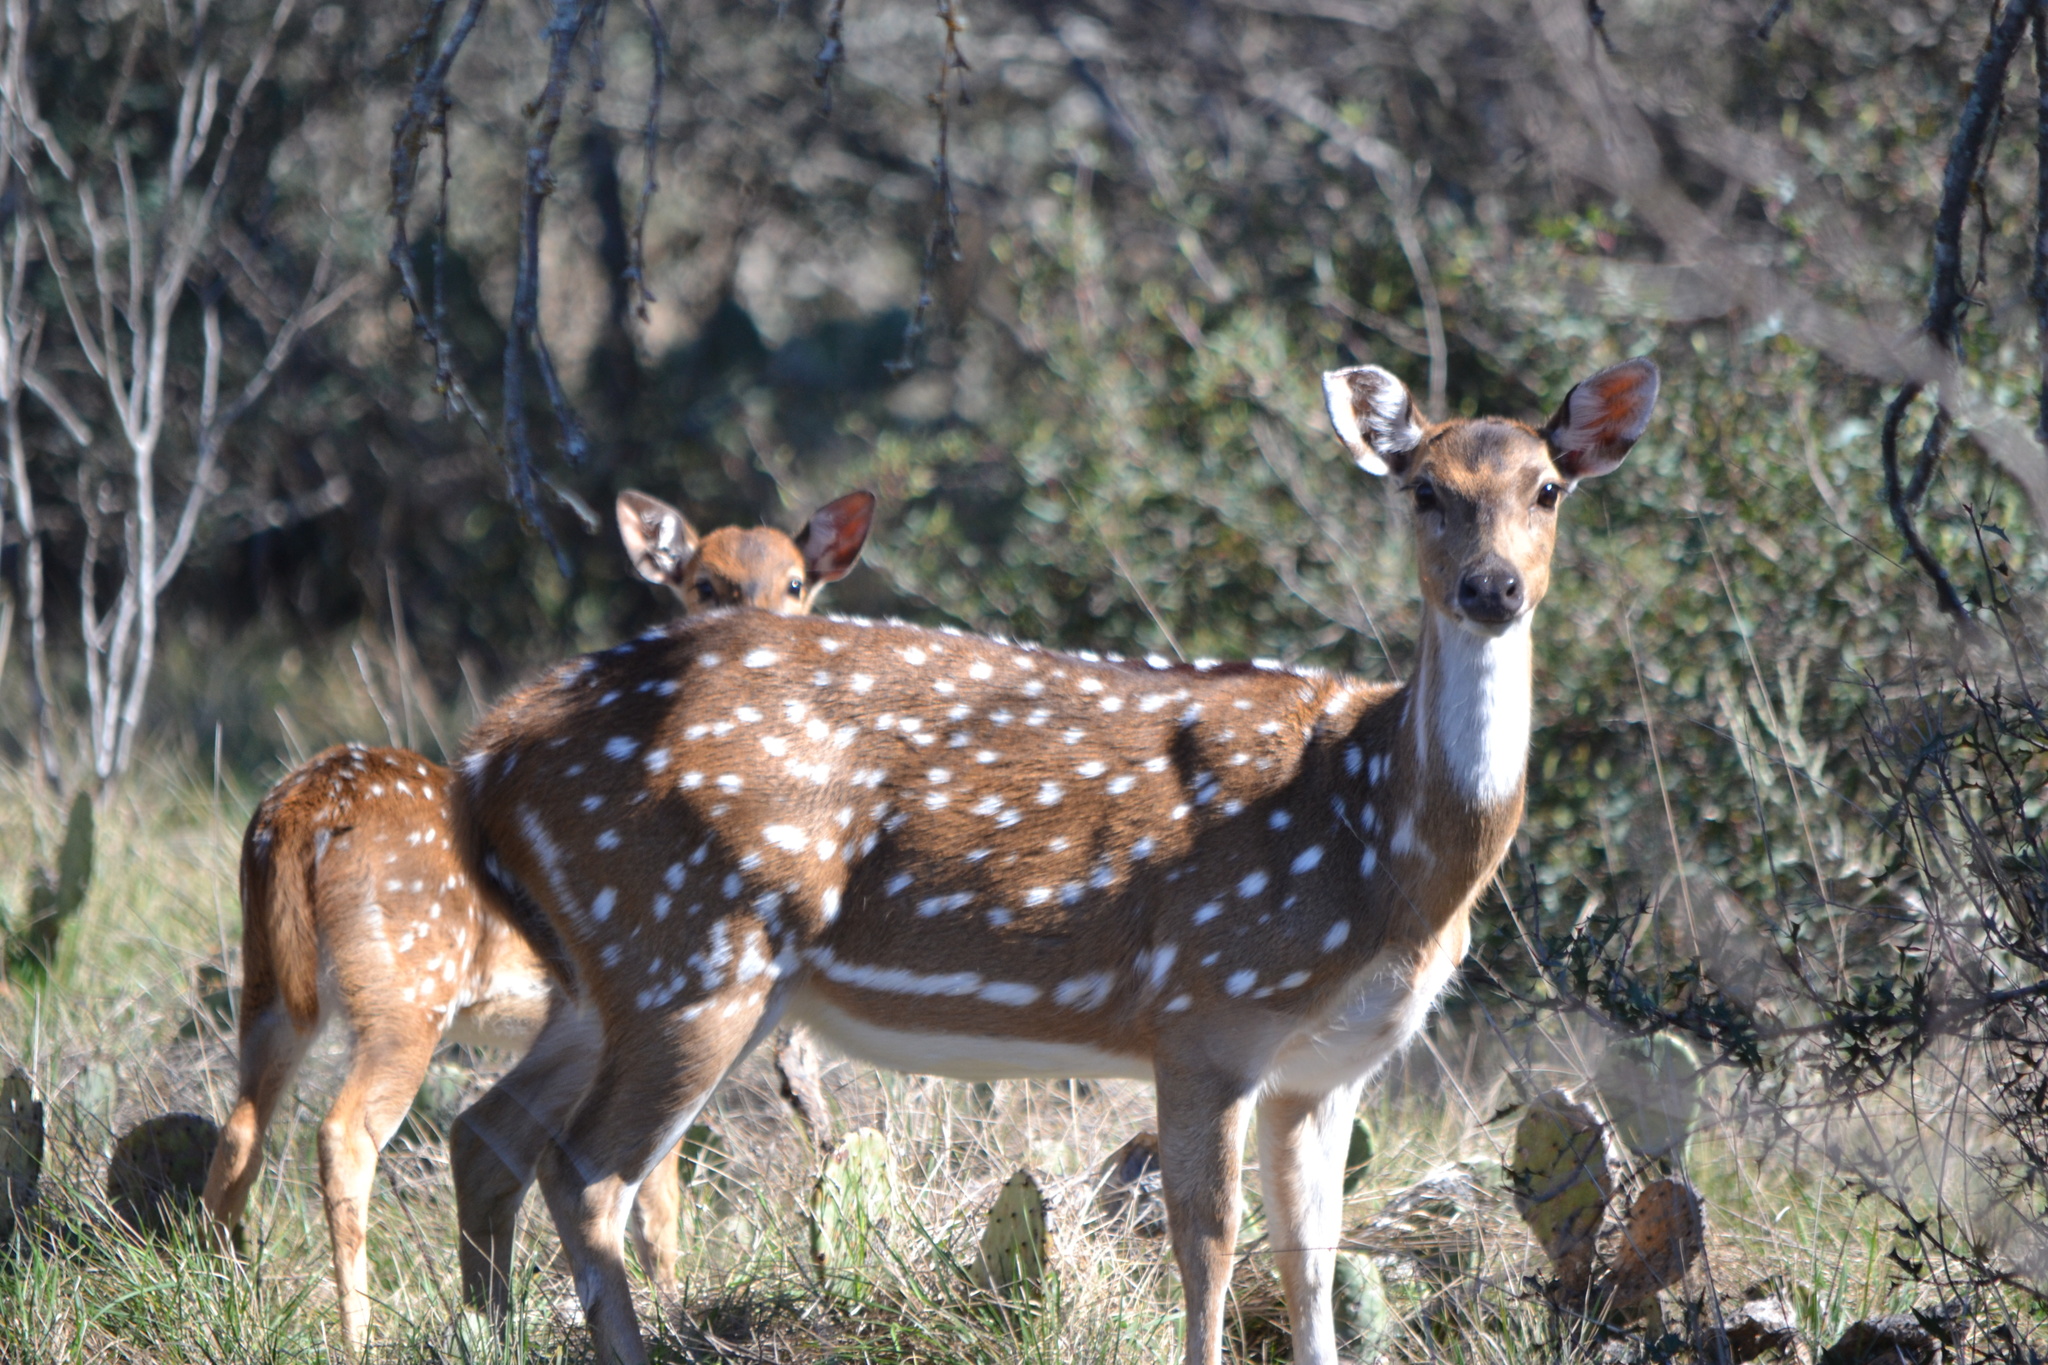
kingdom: Animalia
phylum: Chordata
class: Mammalia
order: Artiodactyla
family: Cervidae
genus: Axis
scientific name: Axis axis
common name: Chital
